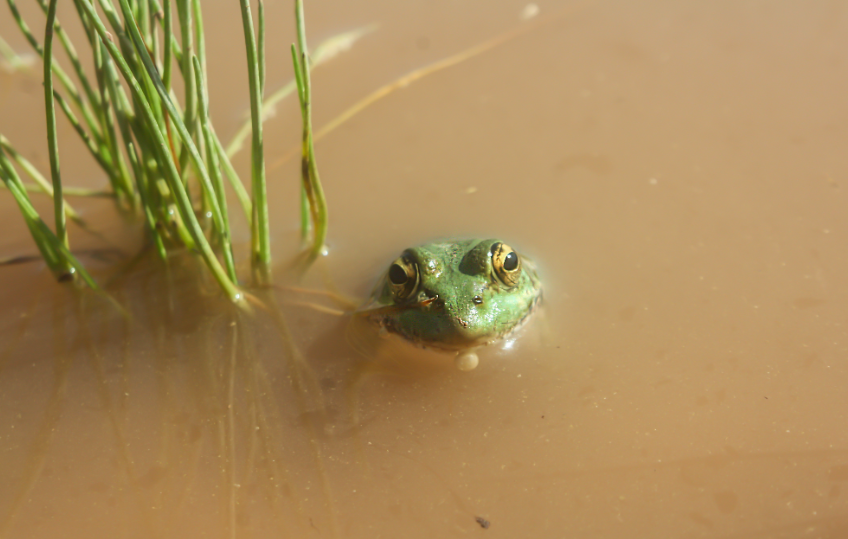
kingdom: Animalia
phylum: Chordata
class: Amphibia
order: Anura
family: Ranidae
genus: Pelophylax
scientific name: Pelophylax saharicus
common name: Sahara frog
